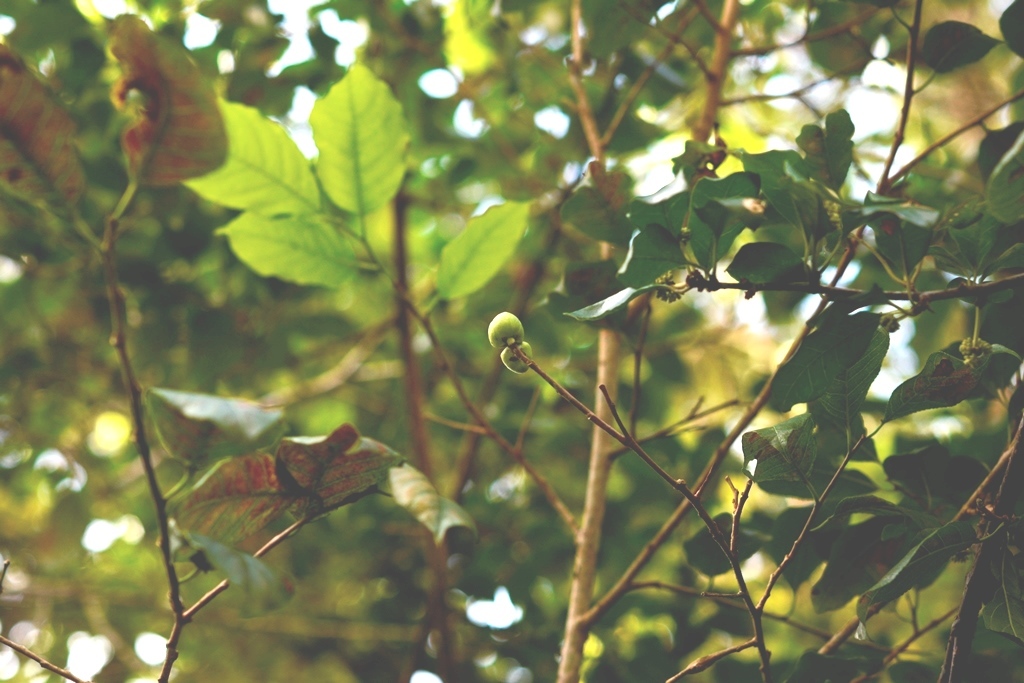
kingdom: Plantae
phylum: Tracheophyta
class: Magnoliopsida
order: Malpighiales
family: Euphorbiaceae
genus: Sebastiania
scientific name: Sebastiania glandulosa
